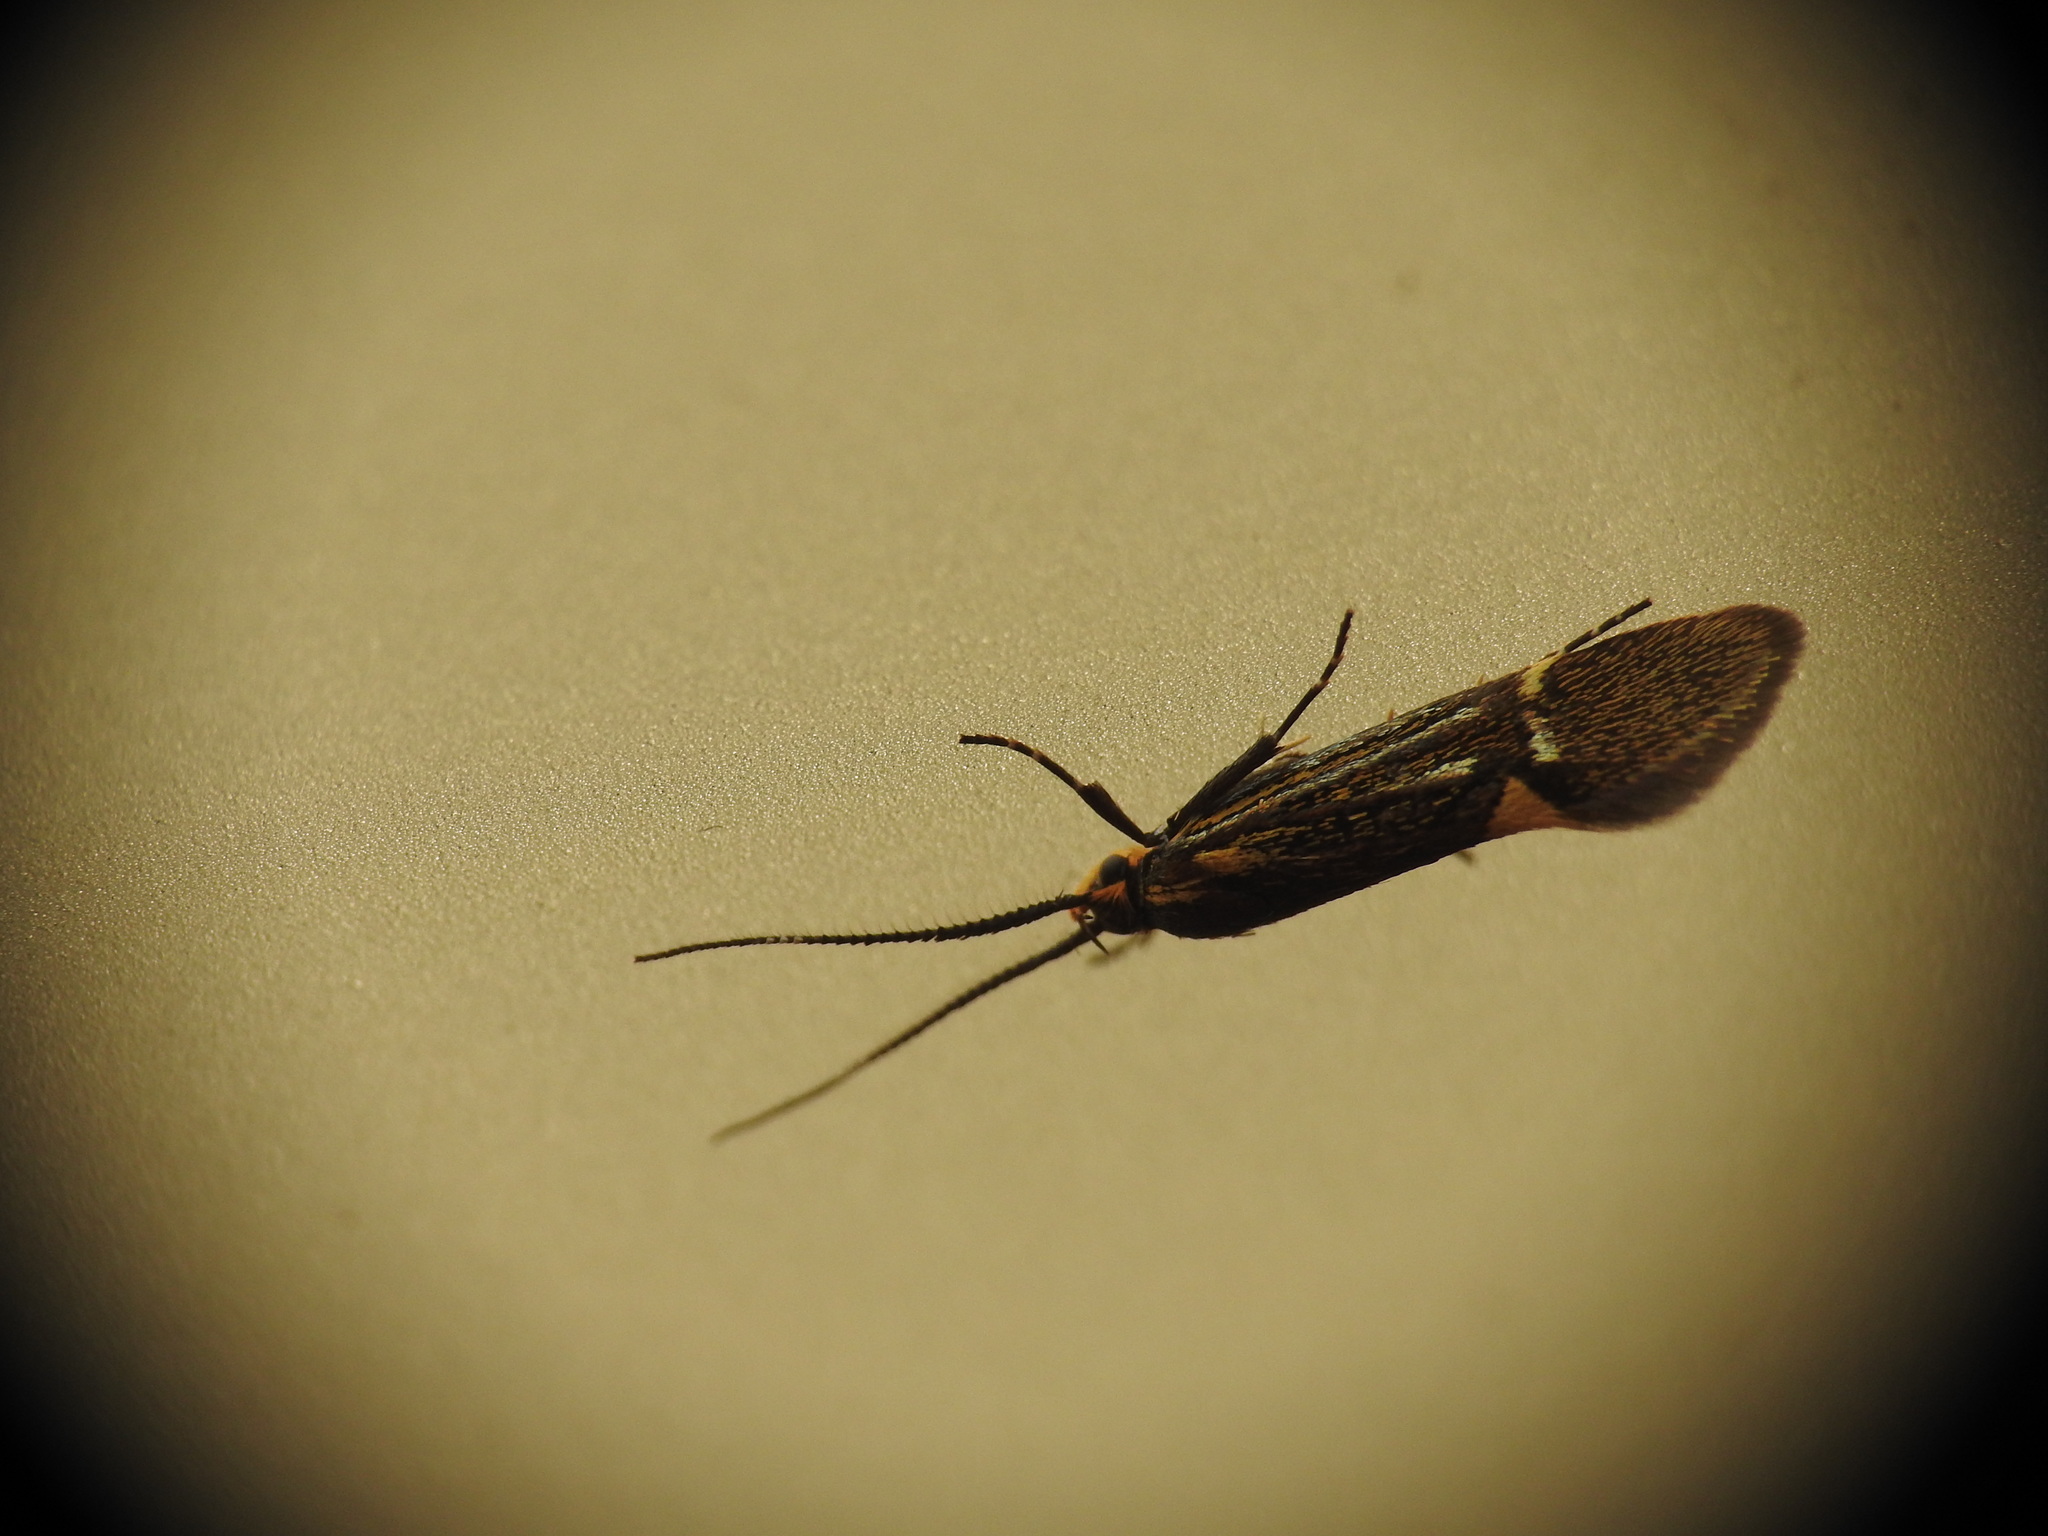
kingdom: Animalia
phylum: Arthropoda
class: Insecta
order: Lepidoptera
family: Oecophoridae
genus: Dafa
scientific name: Dafa Esperia sulphurella
